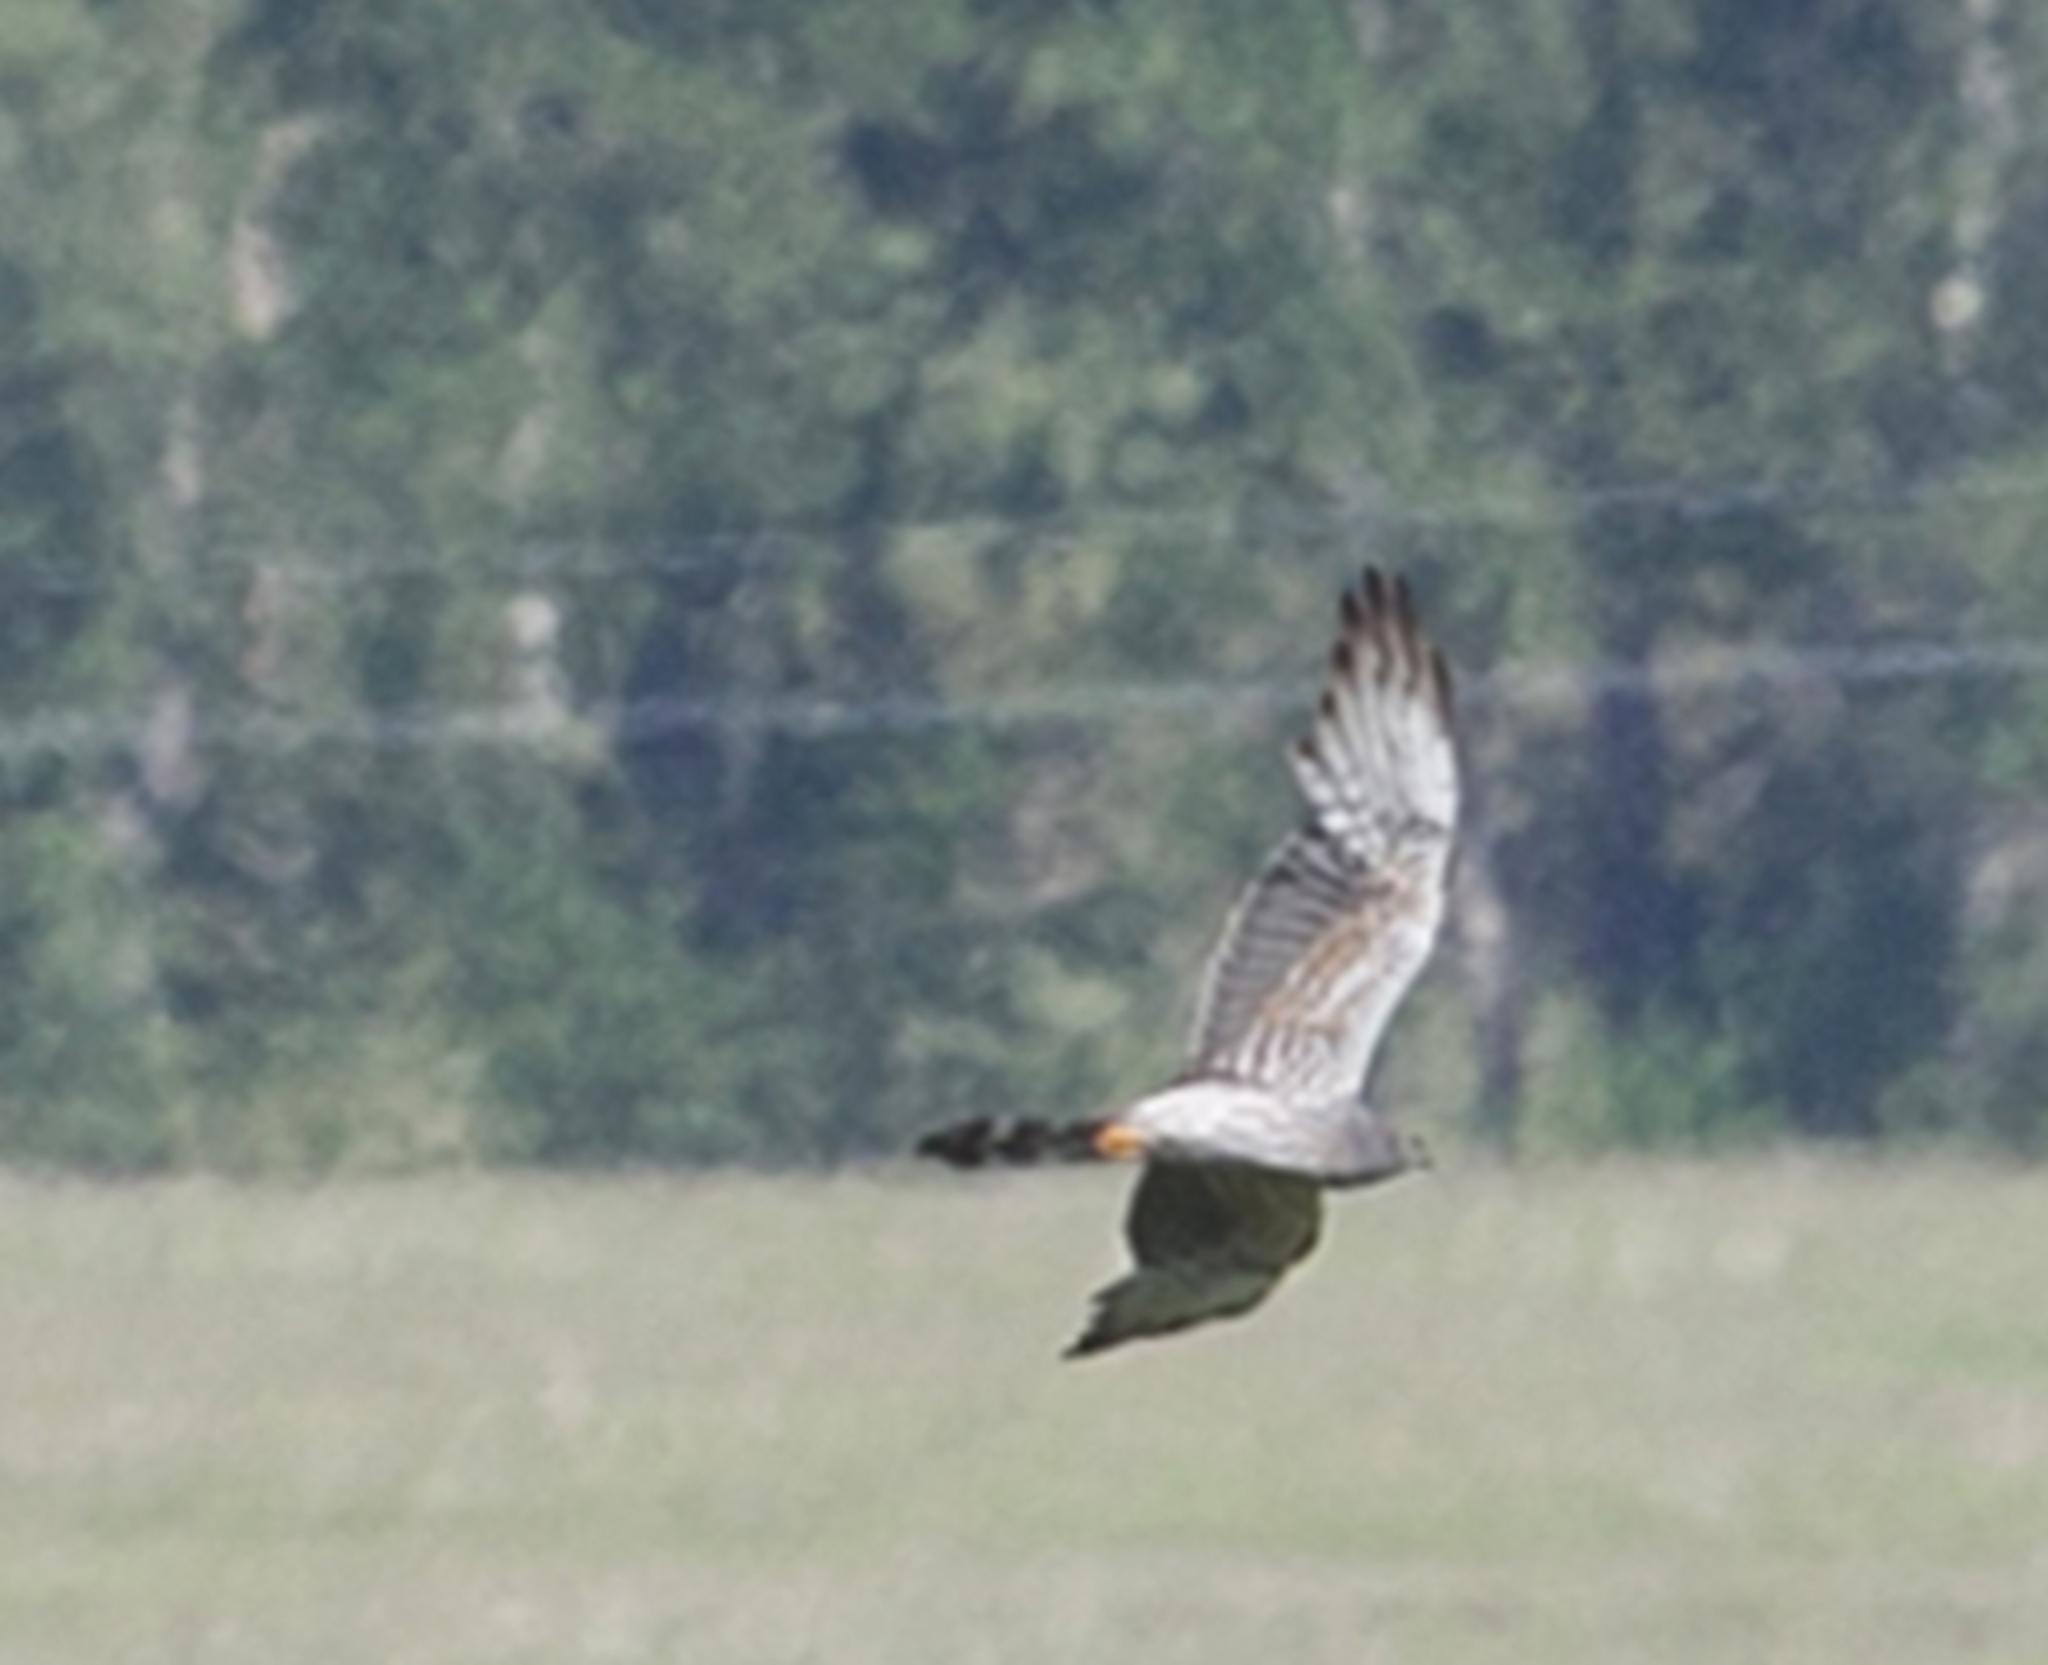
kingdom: Animalia
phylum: Chordata
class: Aves
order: Accipitriformes
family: Accipitridae
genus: Circus
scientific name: Circus pygargus
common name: Montagu's harrier
